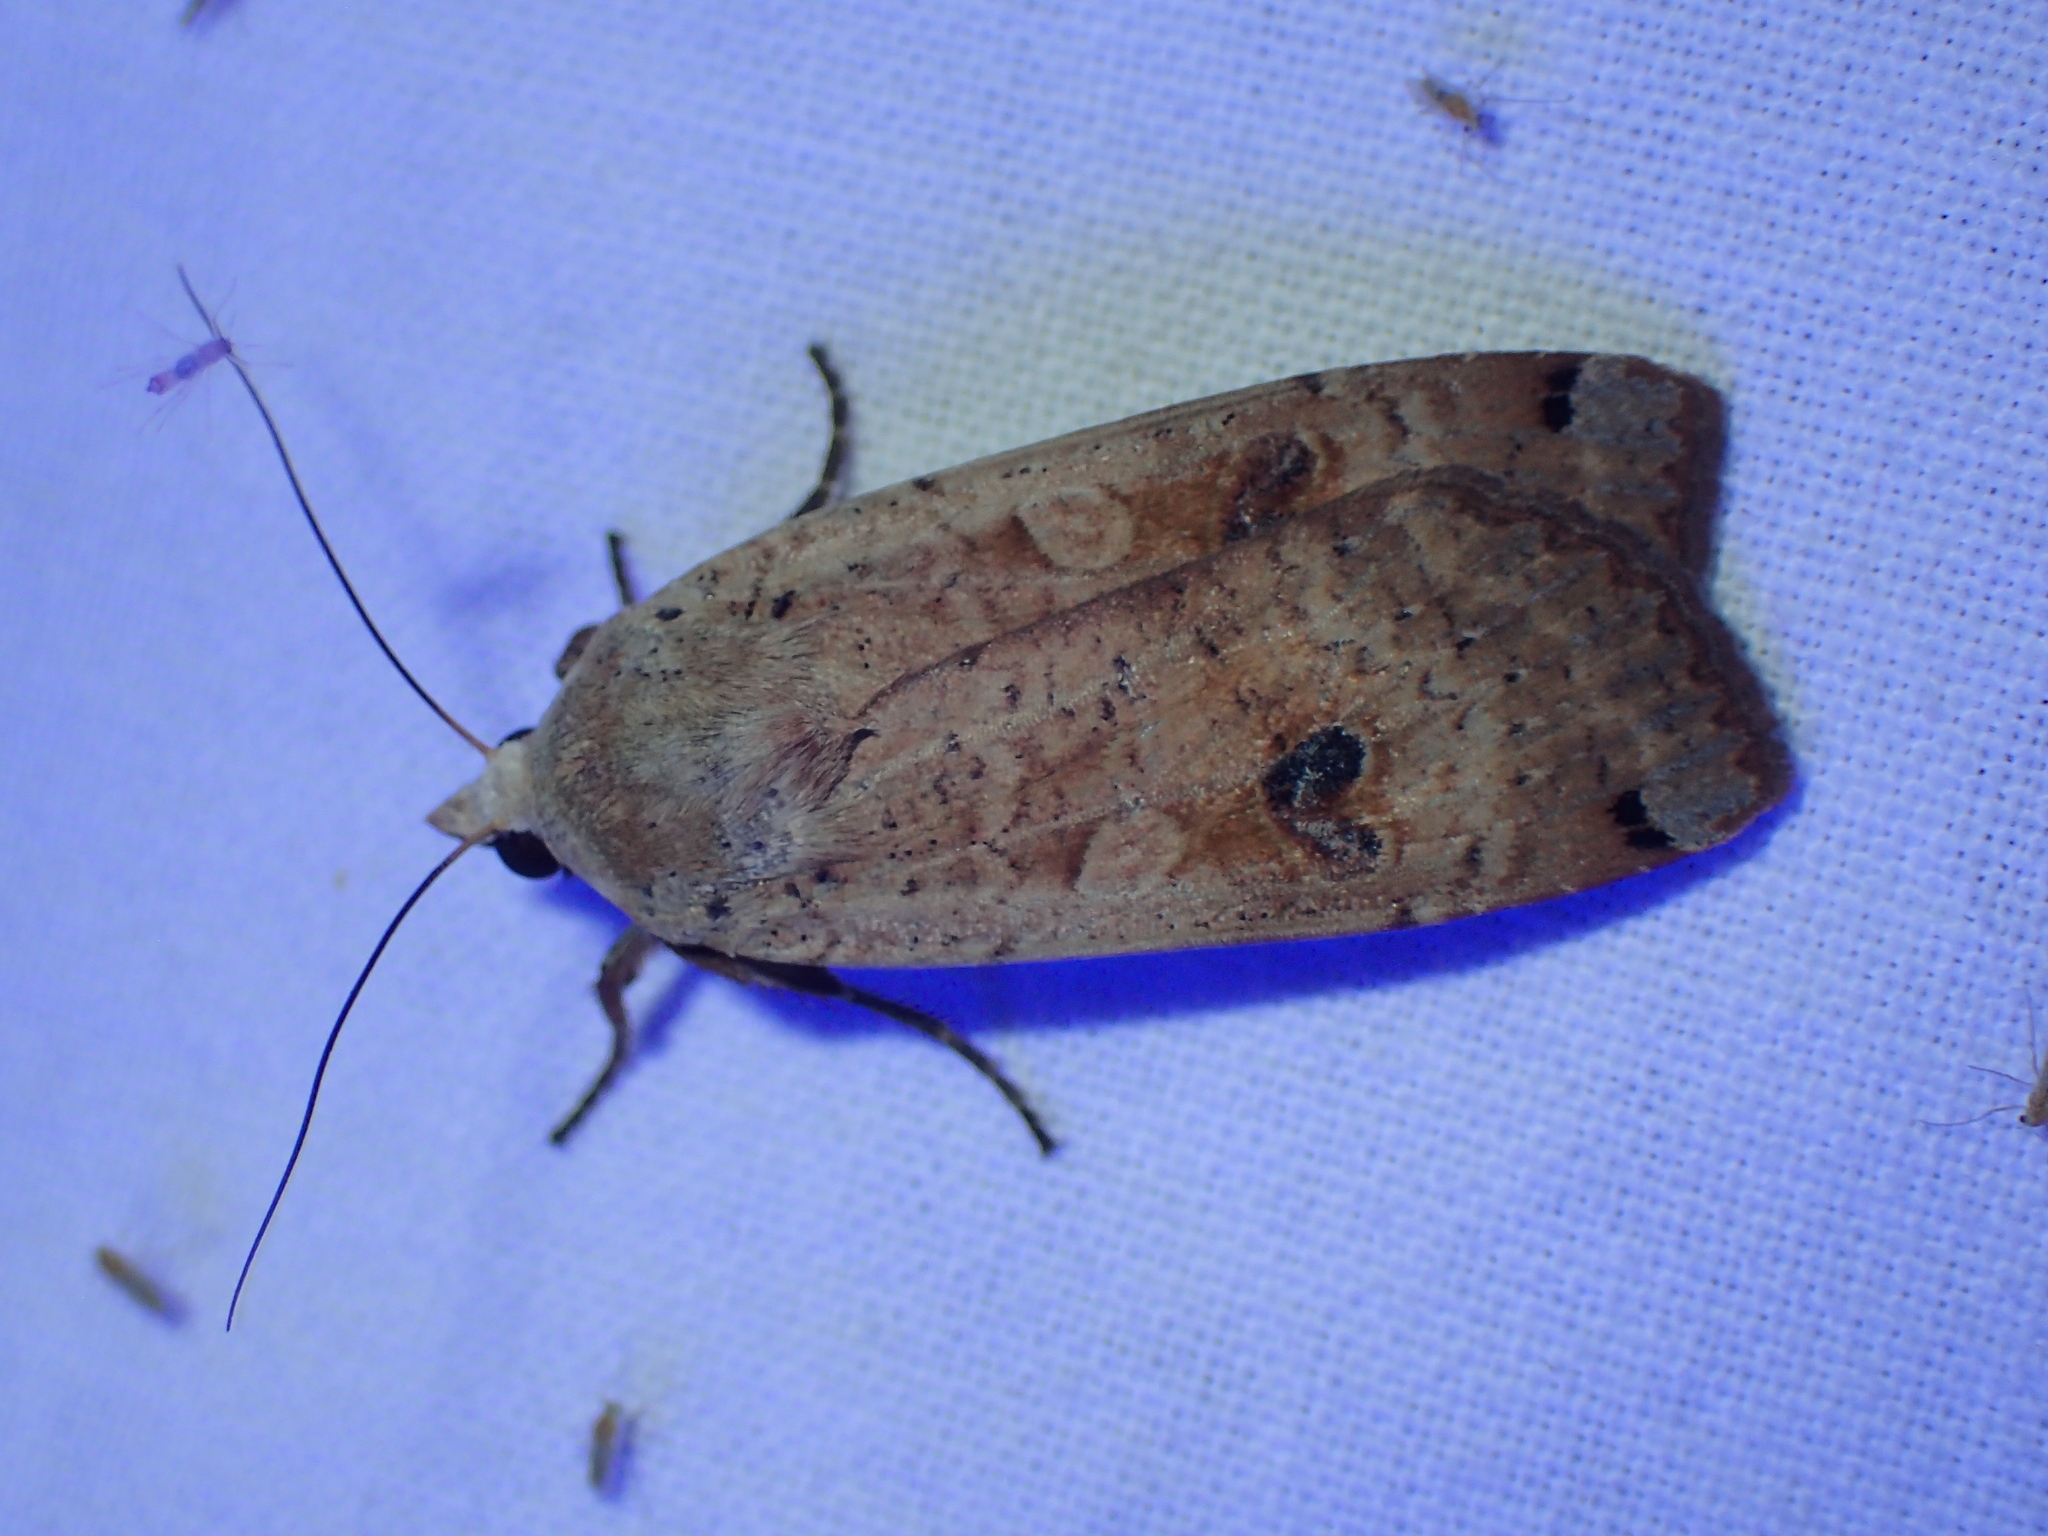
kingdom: Animalia
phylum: Arthropoda
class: Insecta
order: Lepidoptera
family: Noctuidae
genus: Noctua
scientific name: Noctua pronuba
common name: Large yellow underwing
